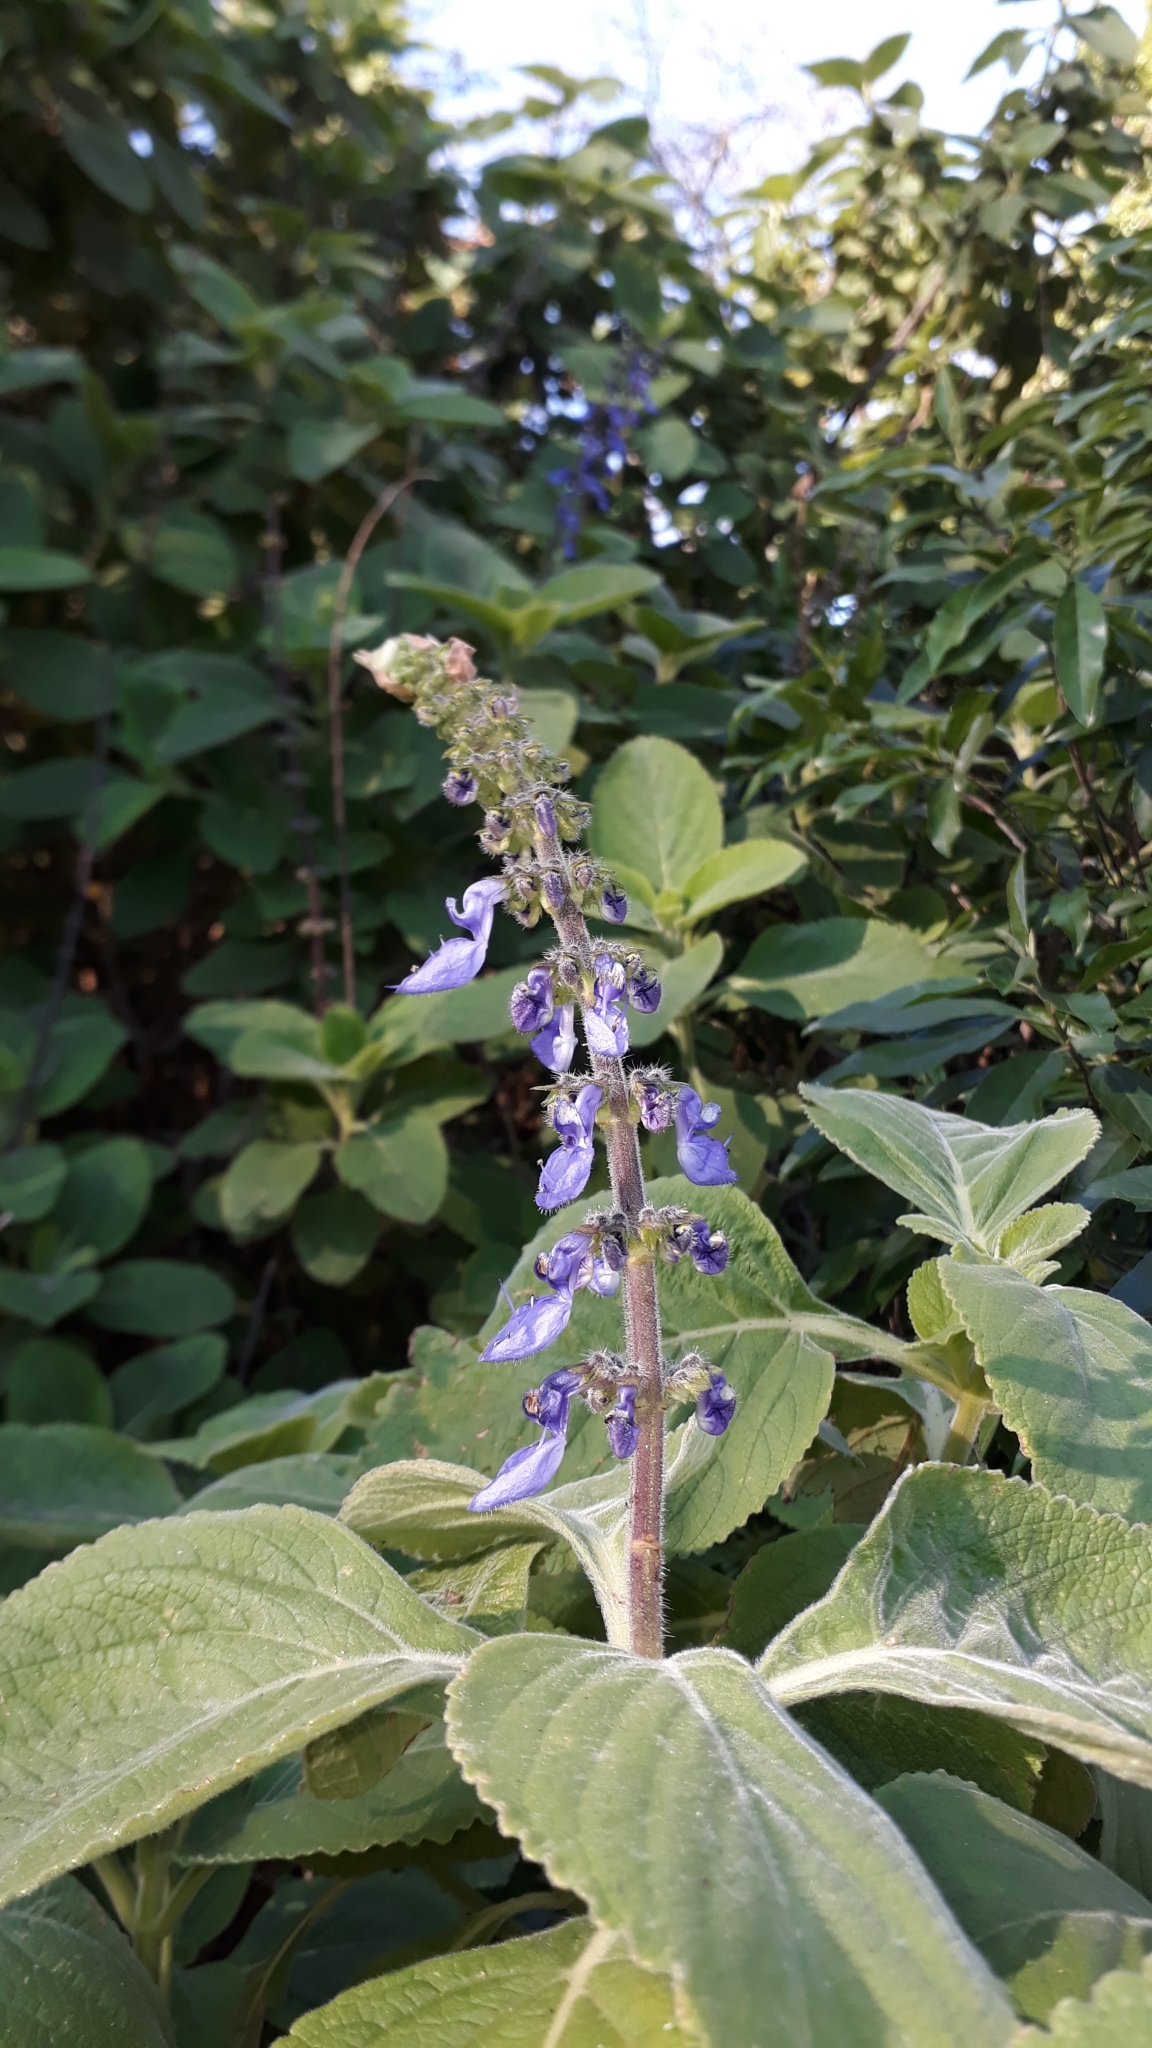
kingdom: Plantae
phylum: Tracheophyta
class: Magnoliopsida
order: Lamiales
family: Lamiaceae
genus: Coleus
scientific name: Coleus barbatus
